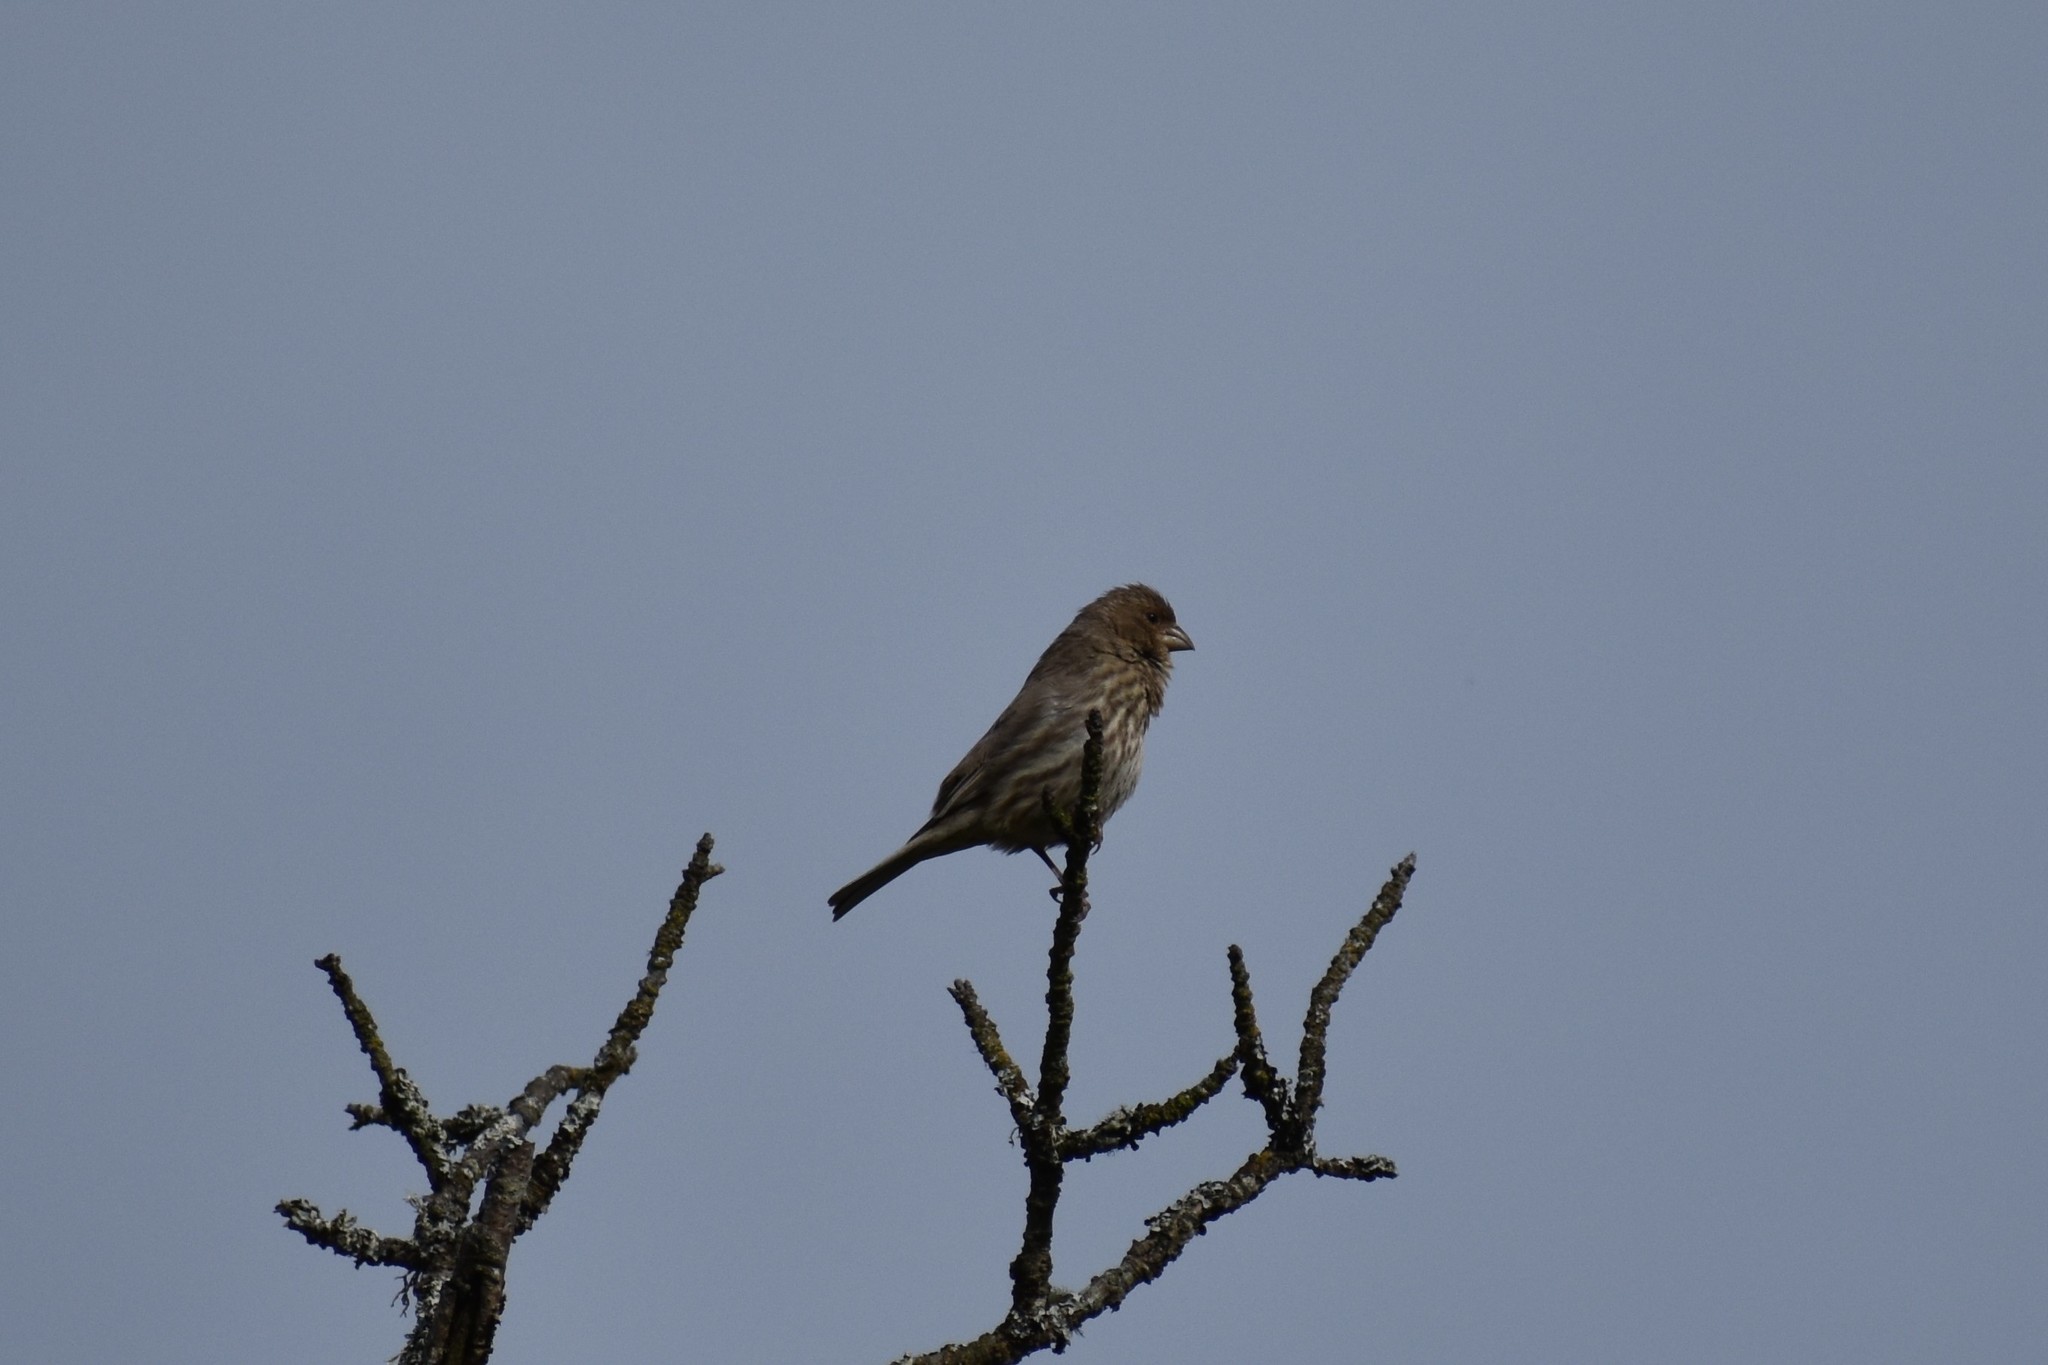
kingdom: Animalia
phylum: Chordata
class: Aves
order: Passeriformes
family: Fringillidae
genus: Haemorhous
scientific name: Haemorhous mexicanus
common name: House finch
